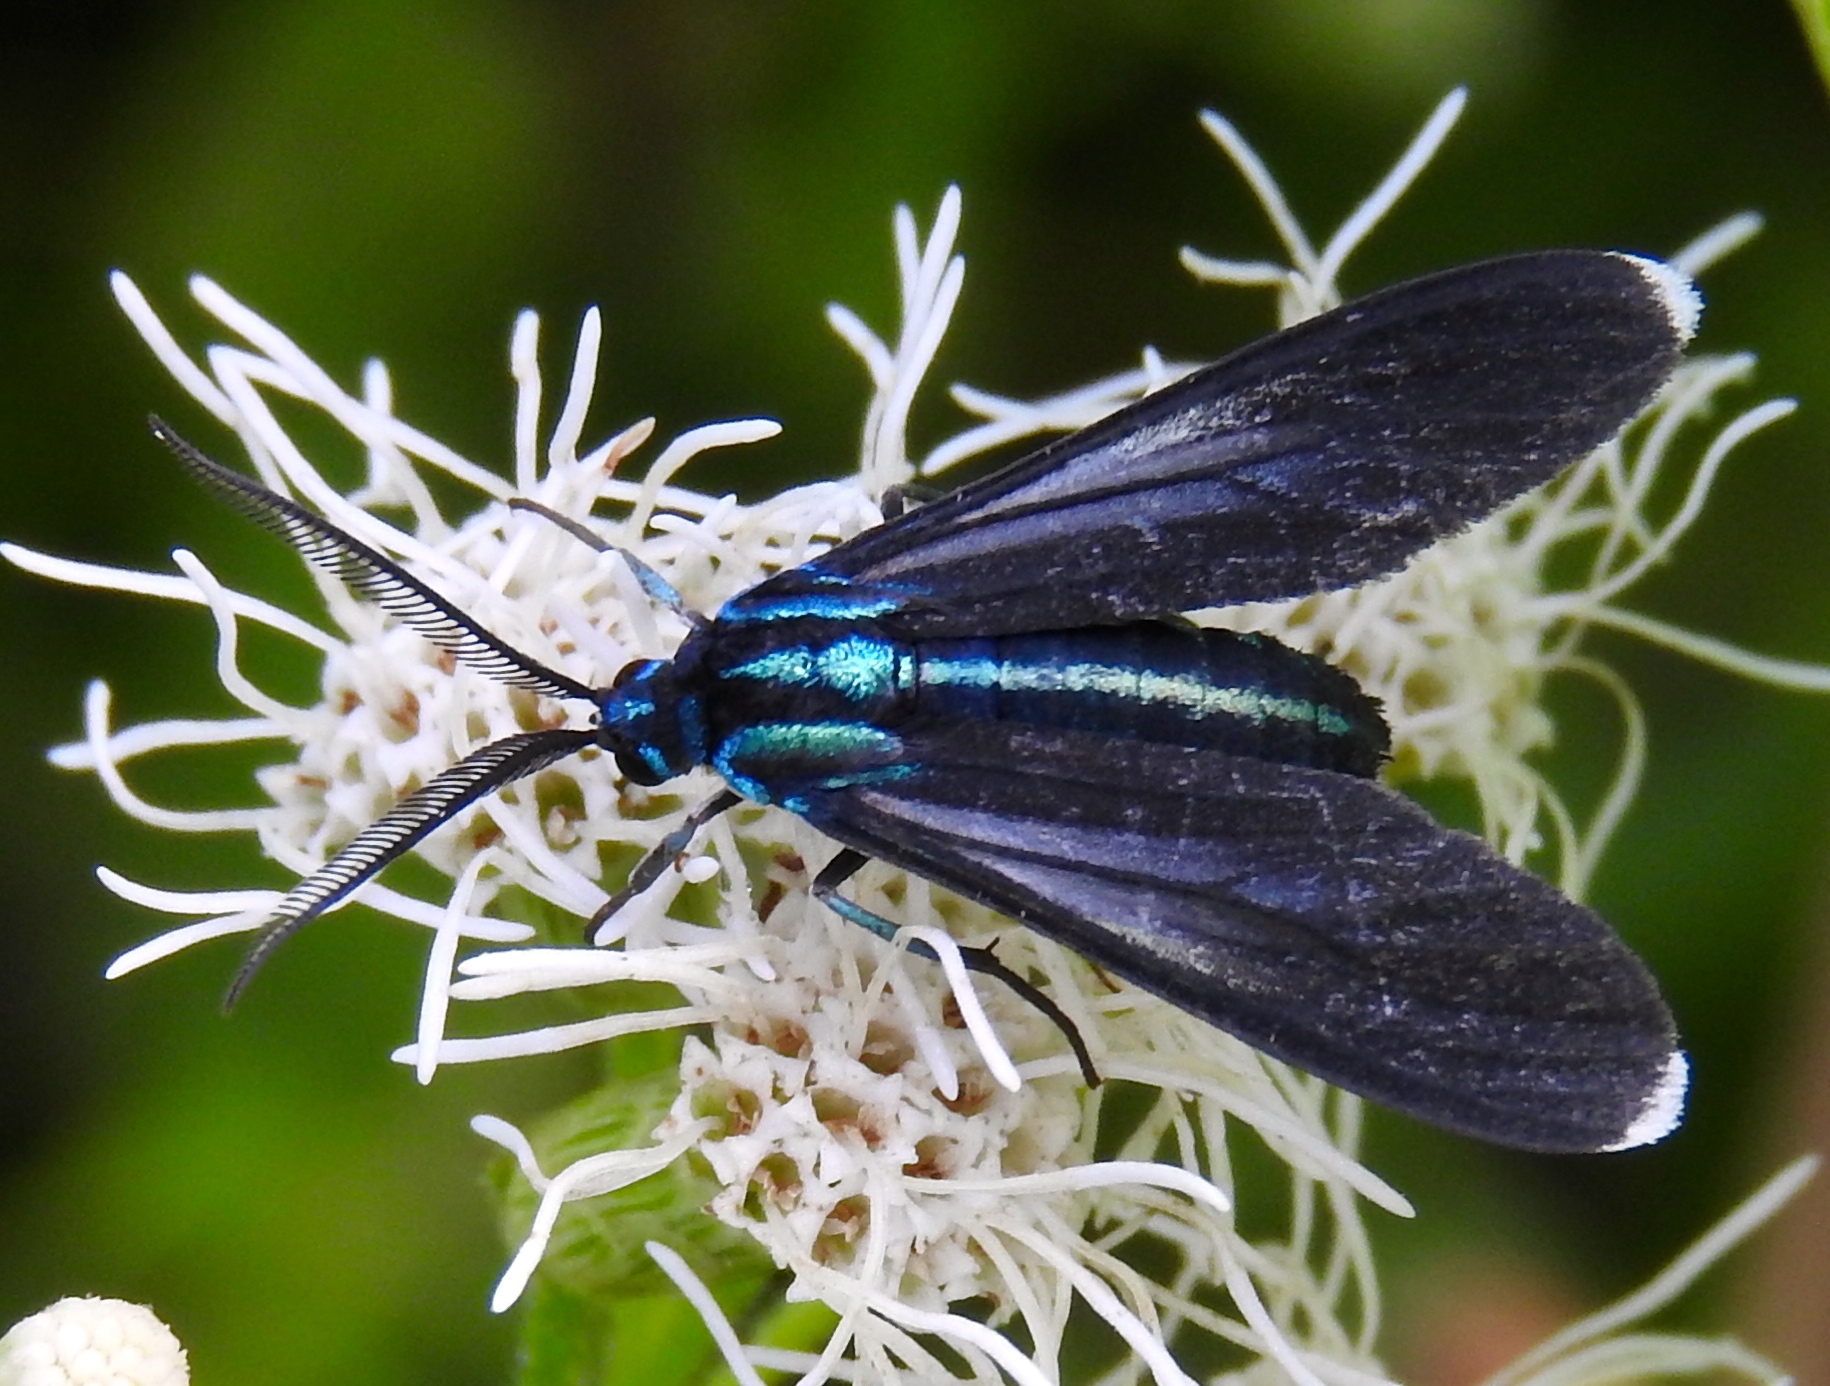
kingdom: Animalia
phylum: Arthropoda
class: Insecta
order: Lepidoptera
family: Erebidae
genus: Uranophora
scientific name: Uranophora leucotela
